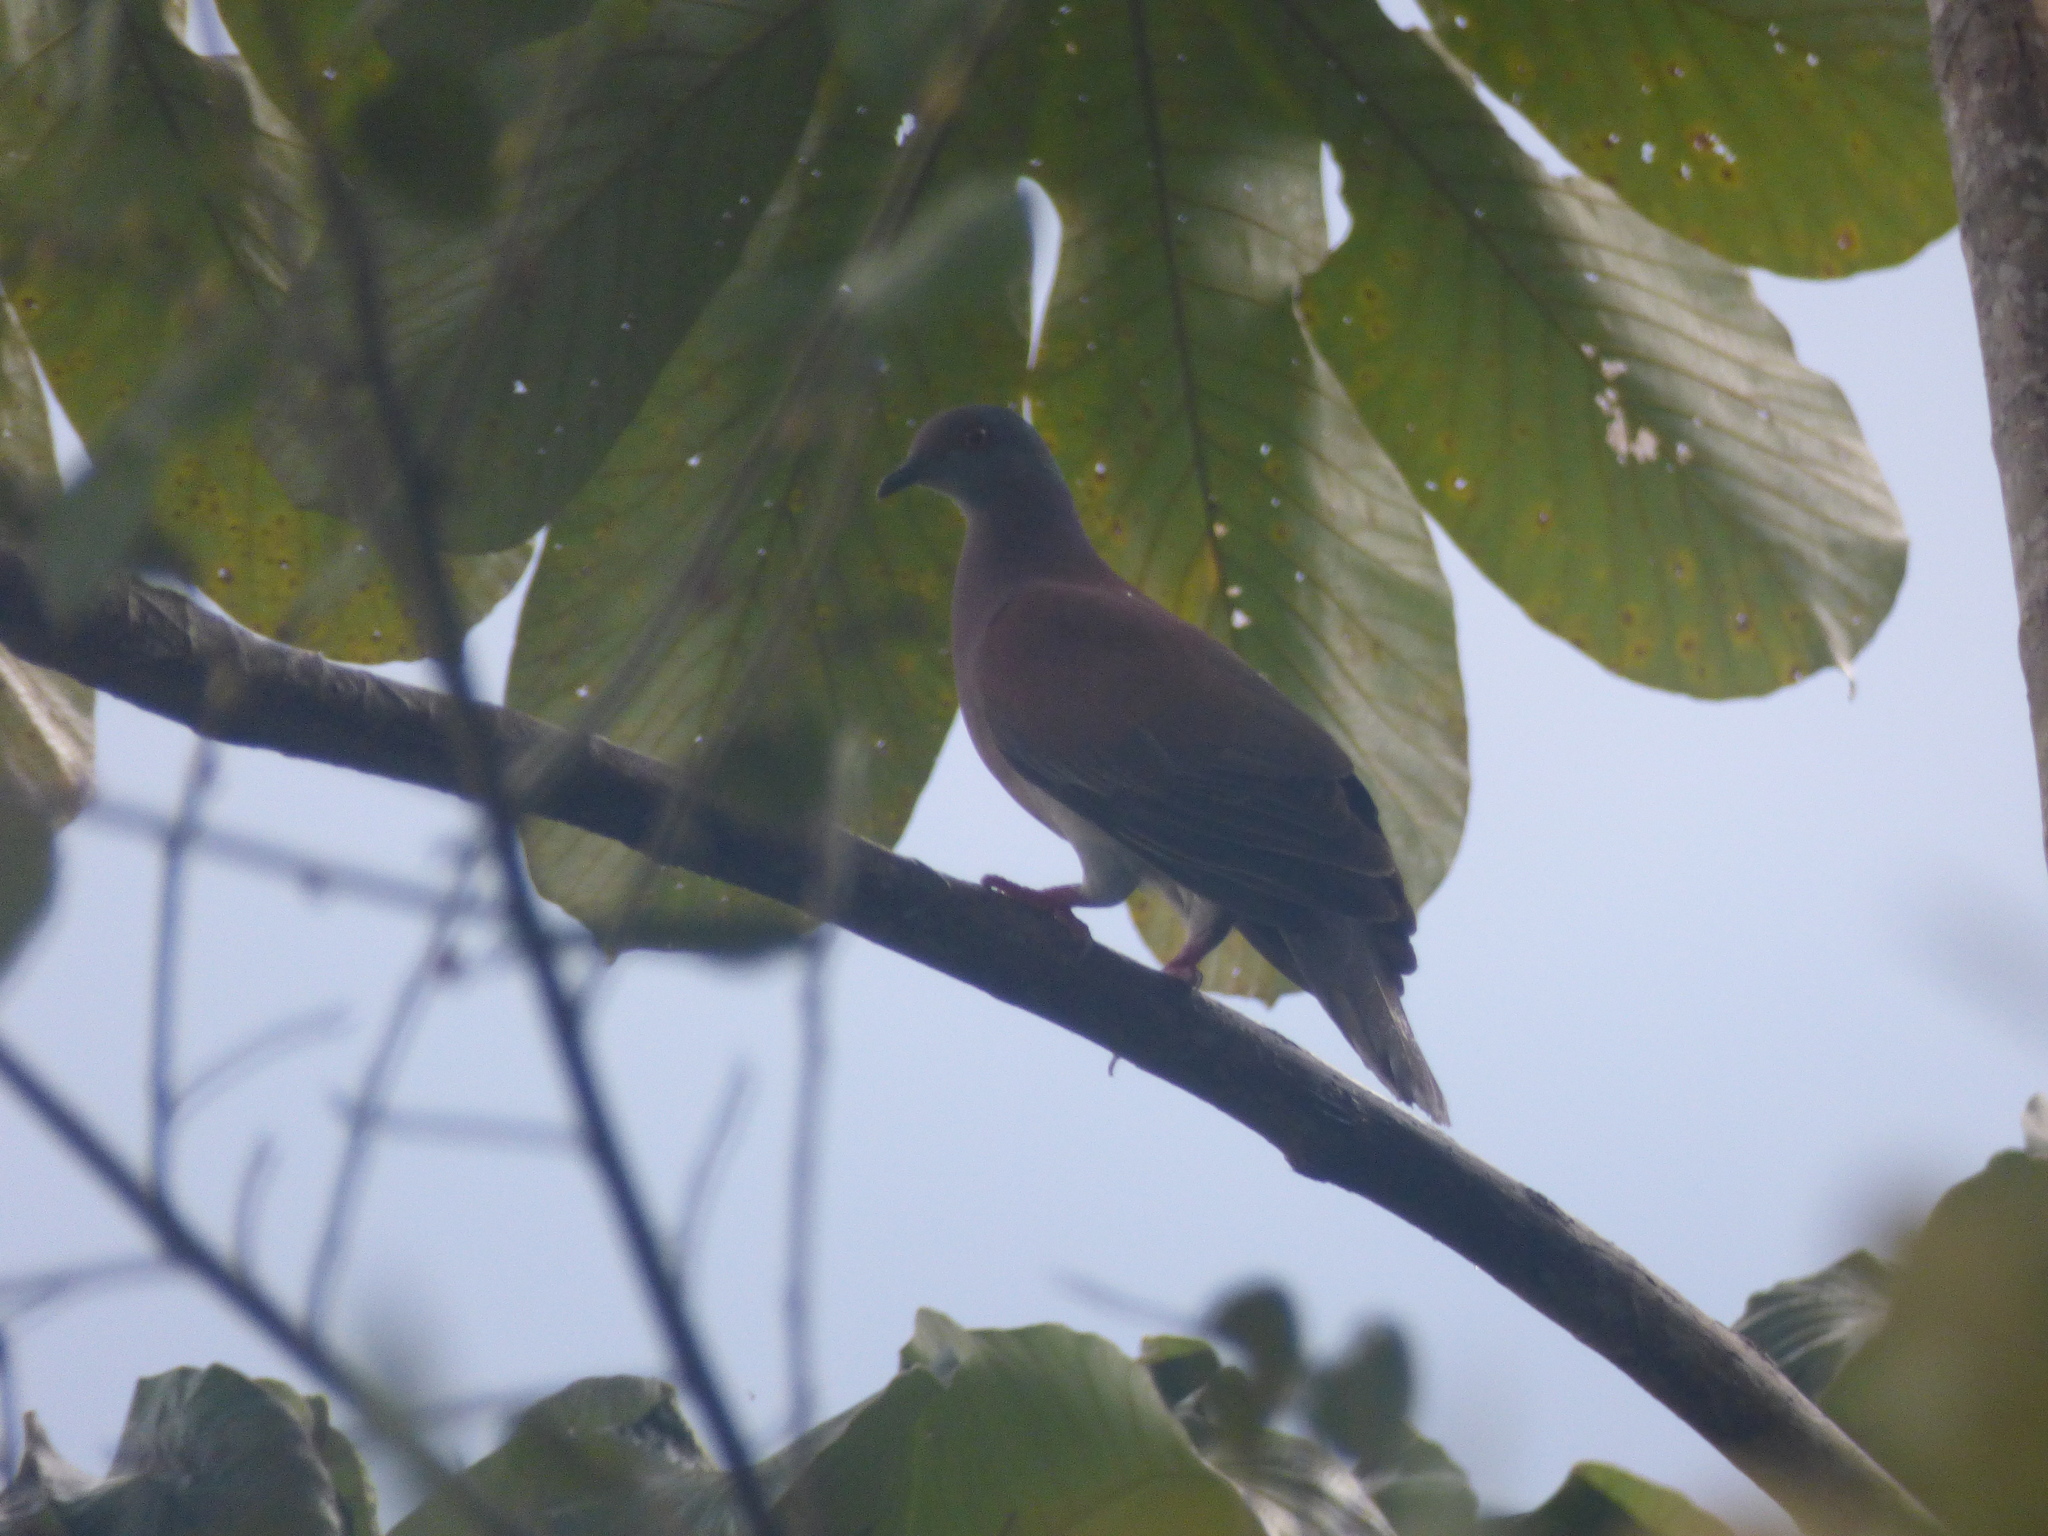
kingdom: Animalia
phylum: Chordata
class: Aves
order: Columbiformes
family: Columbidae
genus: Patagioenas
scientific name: Patagioenas cayennensis
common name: Pale-vented pigeon
